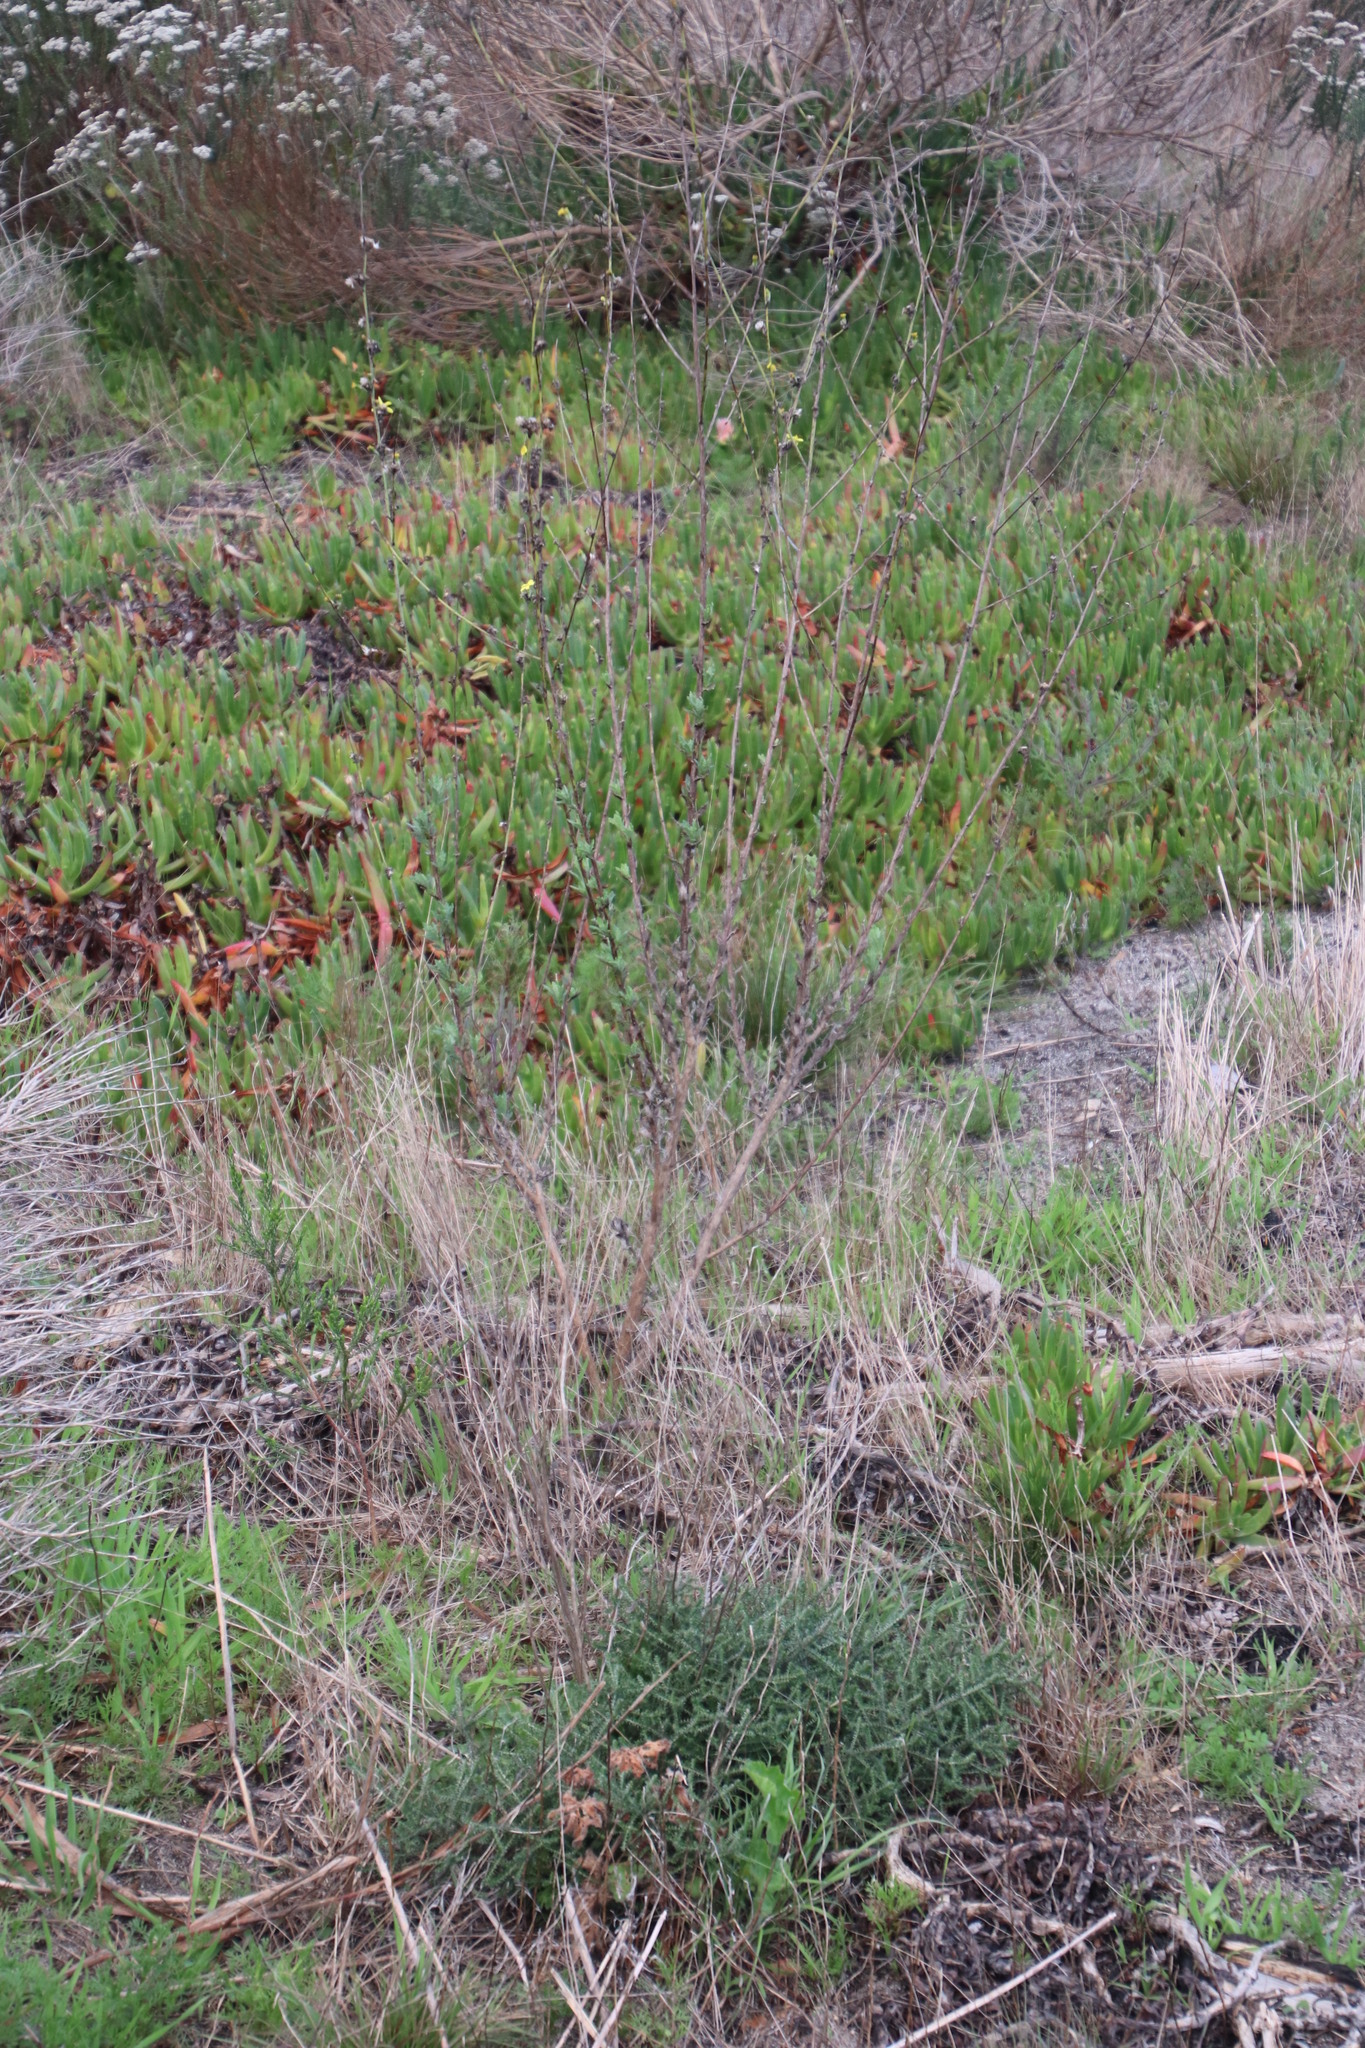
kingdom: Plantae
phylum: Tracheophyta
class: Magnoliopsida
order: Asterales
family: Asteraceae
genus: Senecio
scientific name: Senecio pubigerus
